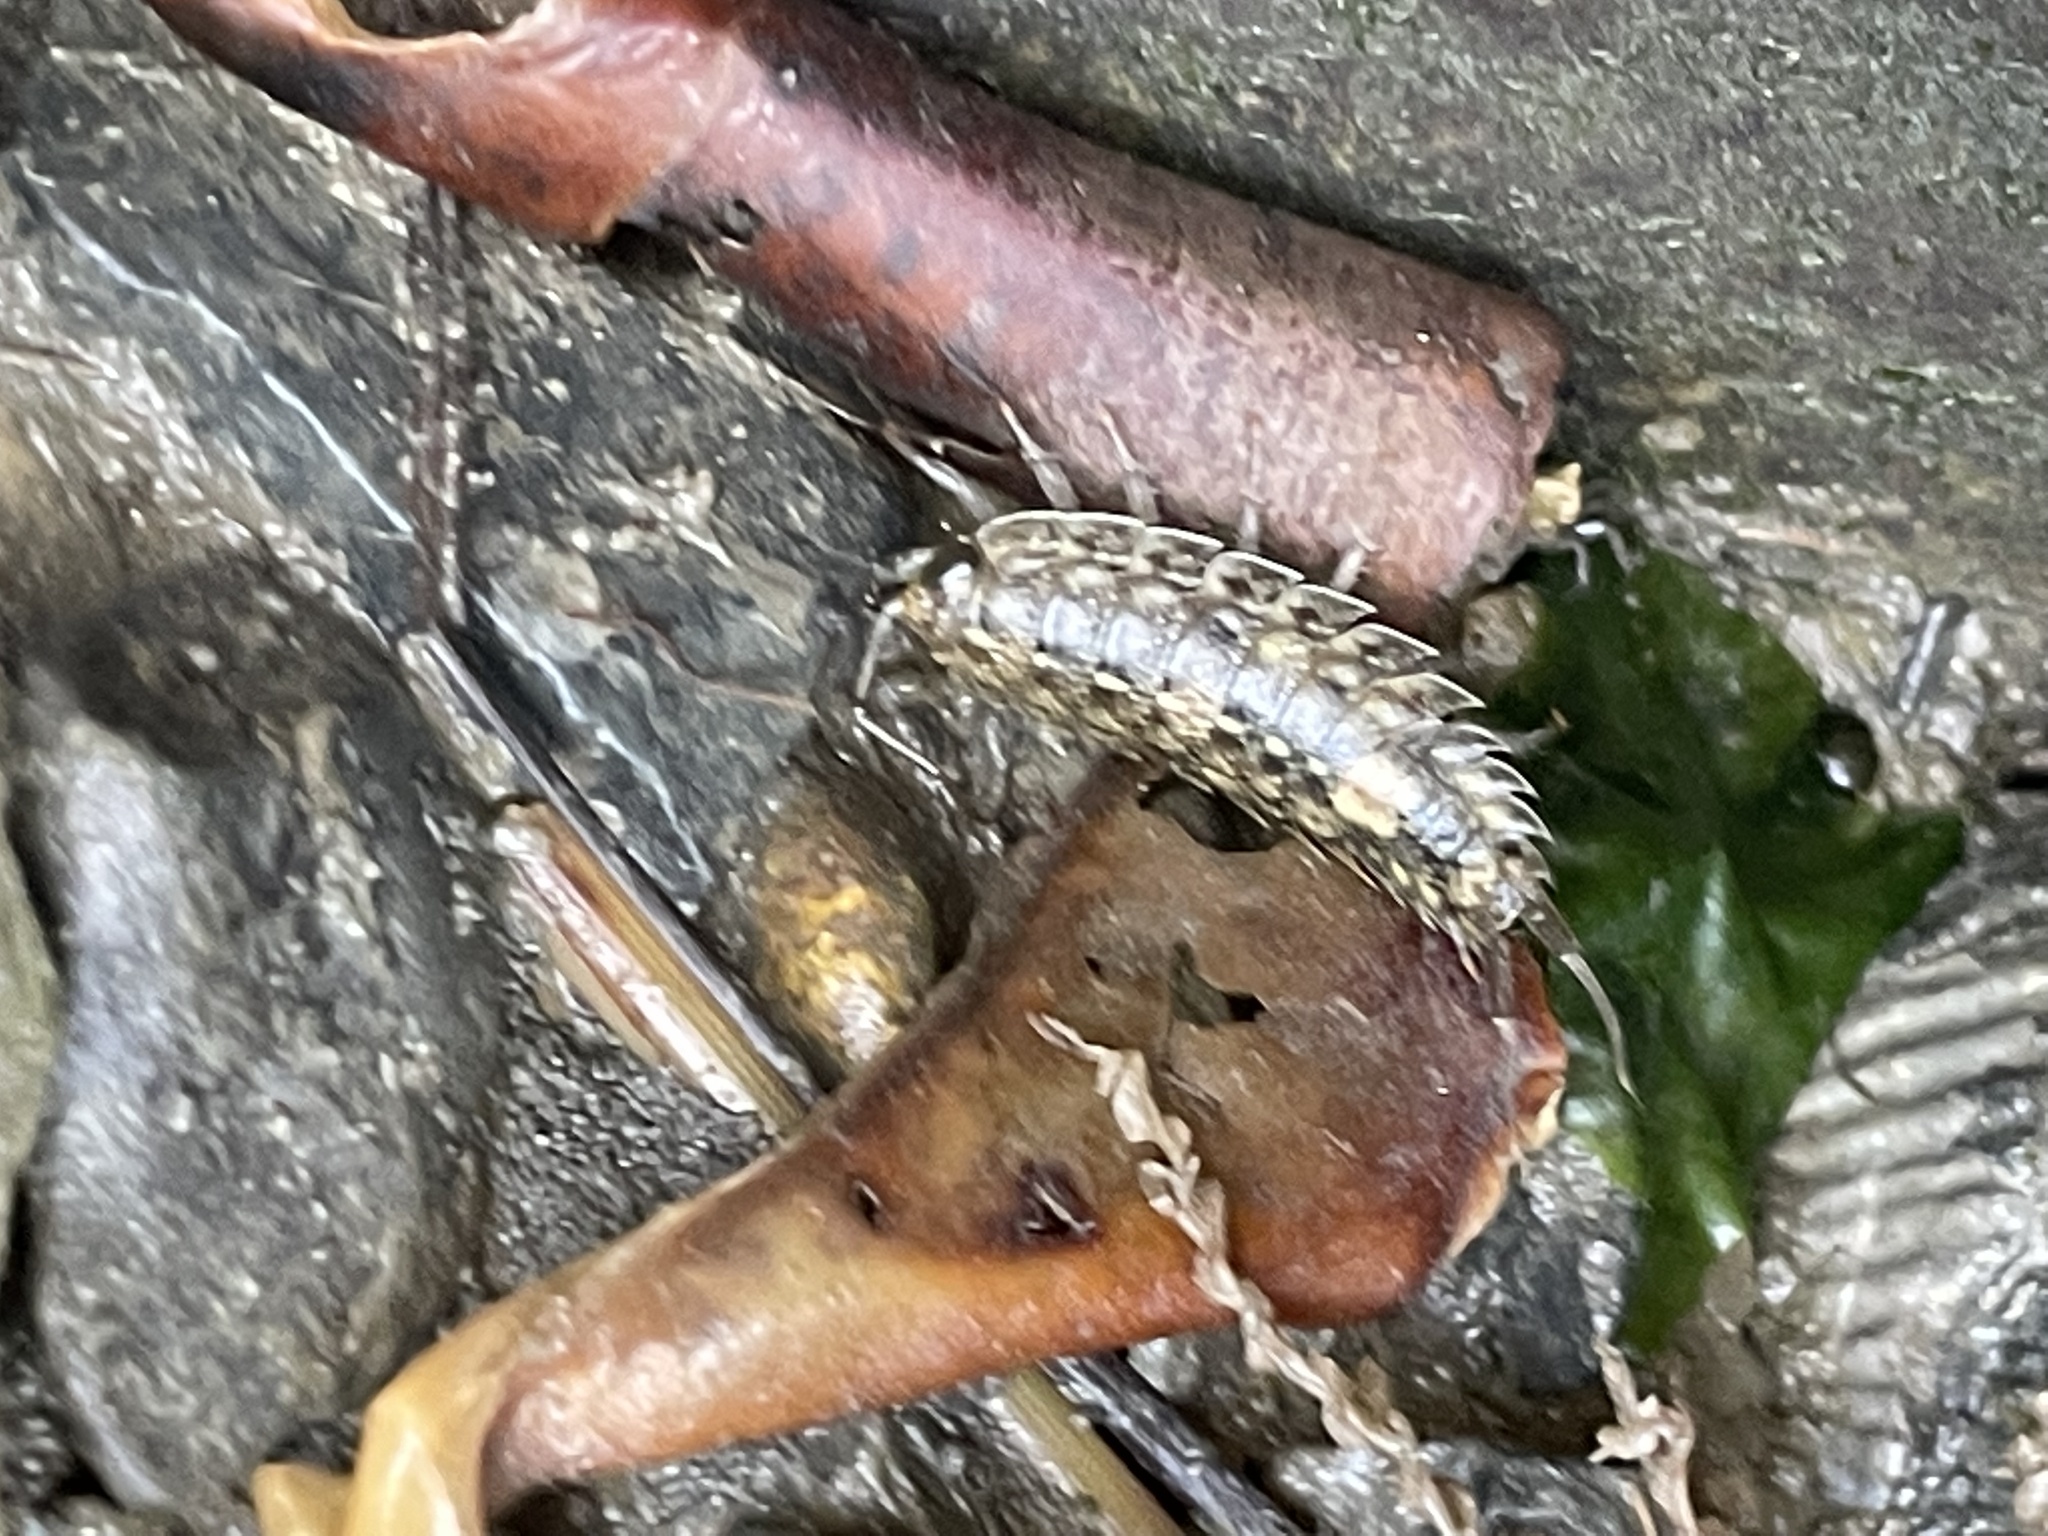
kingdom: Animalia
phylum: Arthropoda
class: Malacostraca
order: Isopoda
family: Ligiidae
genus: Ligia
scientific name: Ligia exotica
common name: Wharf roach
